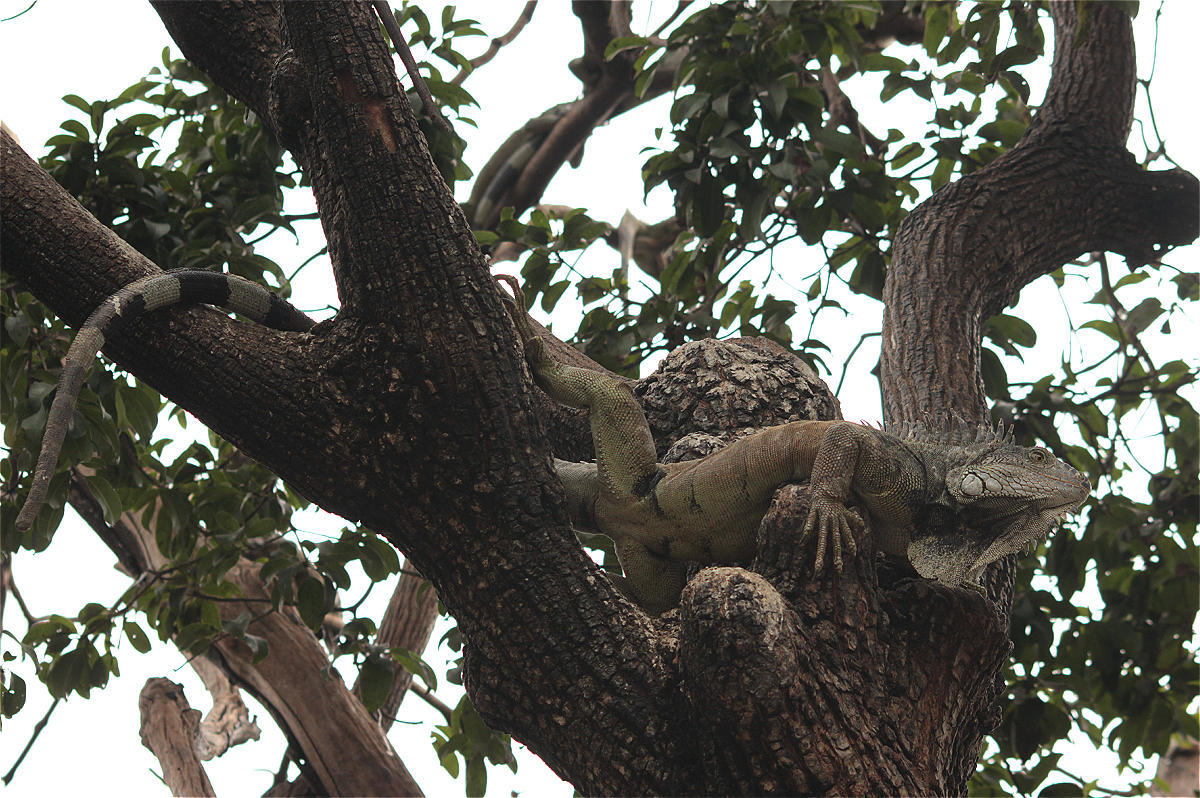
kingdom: Animalia
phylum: Chordata
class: Squamata
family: Iguanidae
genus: Iguana
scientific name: Iguana iguana
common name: Green iguana
